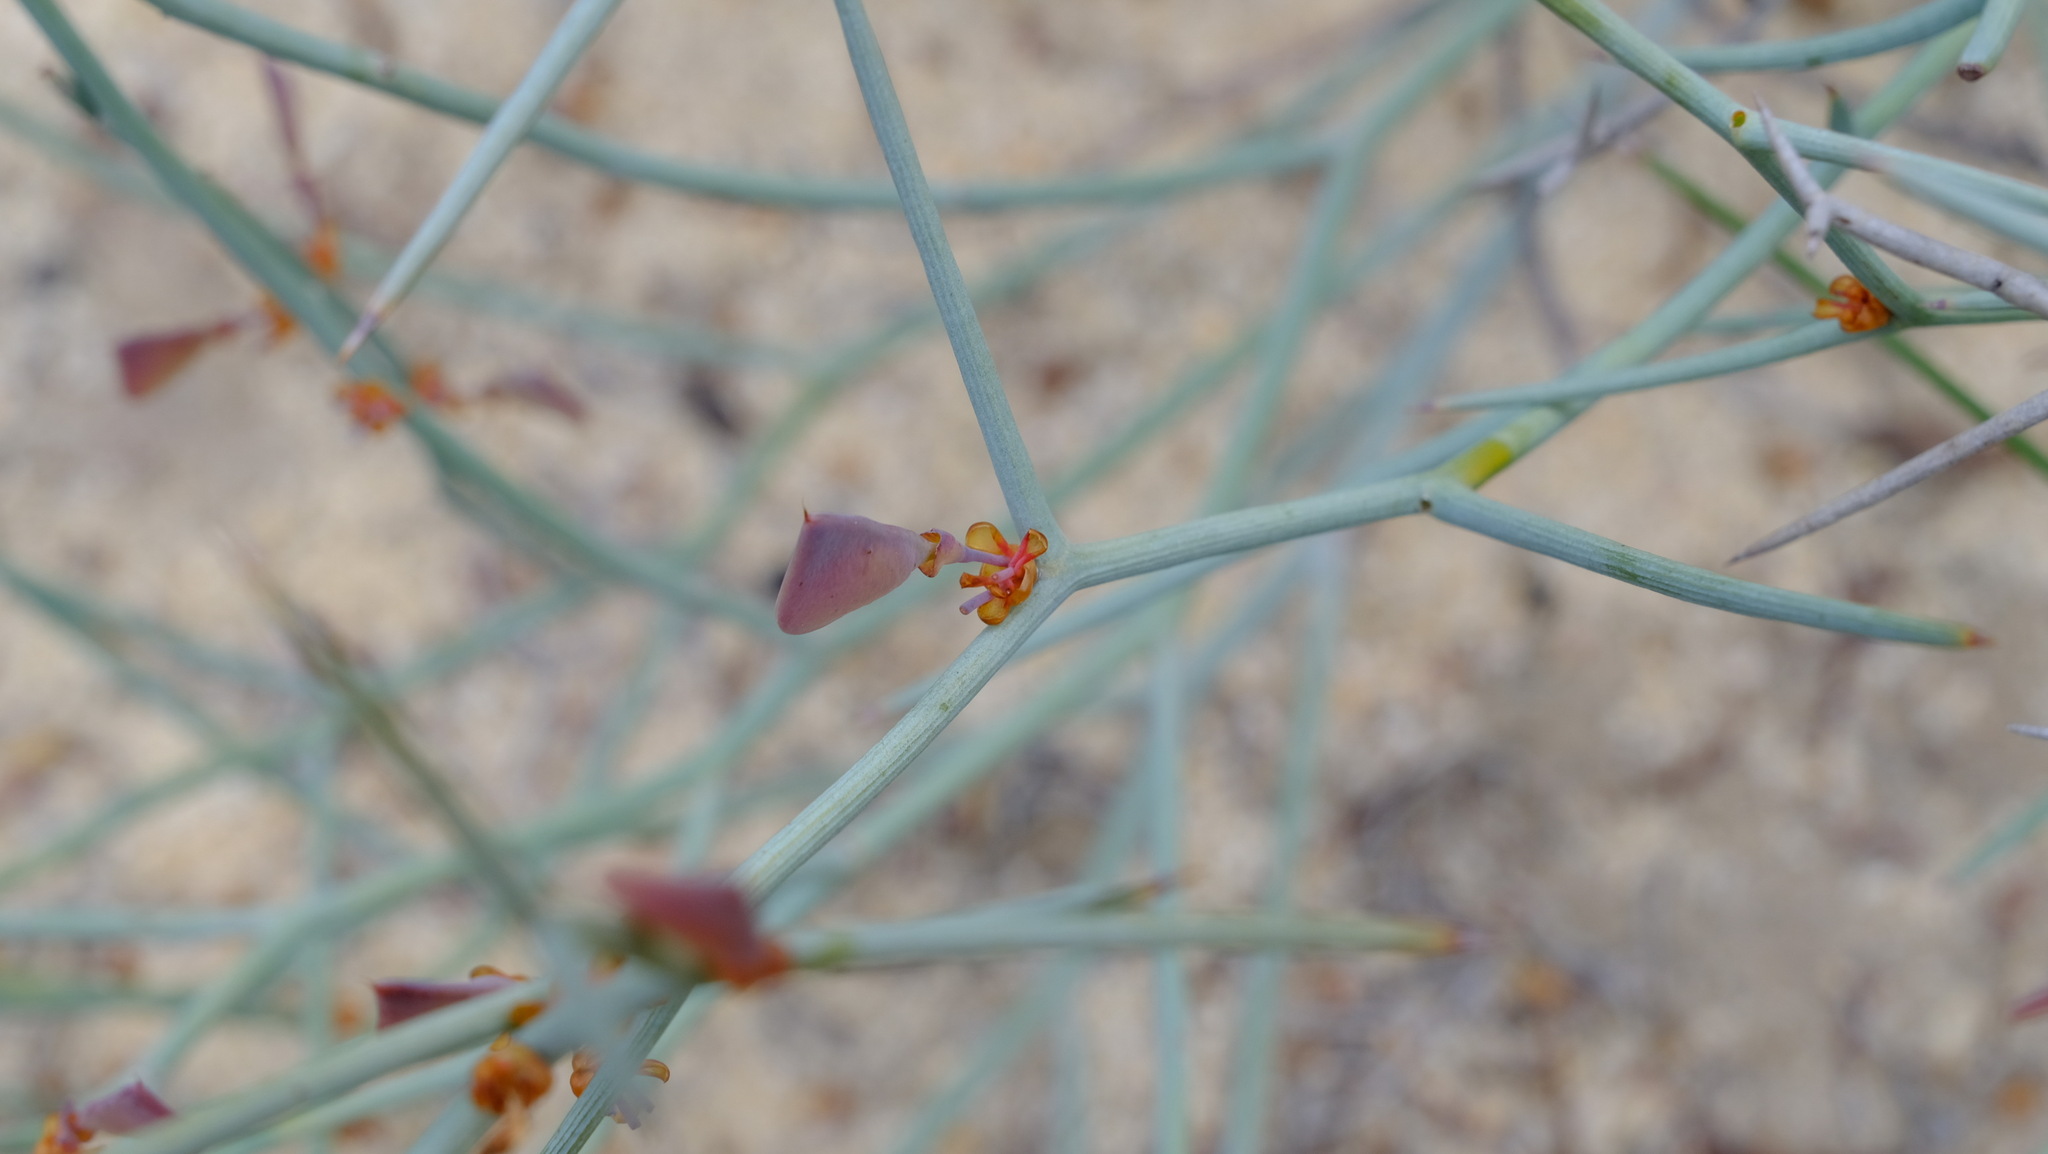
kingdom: Plantae
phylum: Tracheophyta
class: Magnoliopsida
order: Fabales
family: Fabaceae
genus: Daviesia
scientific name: Daviesia hakeoides
